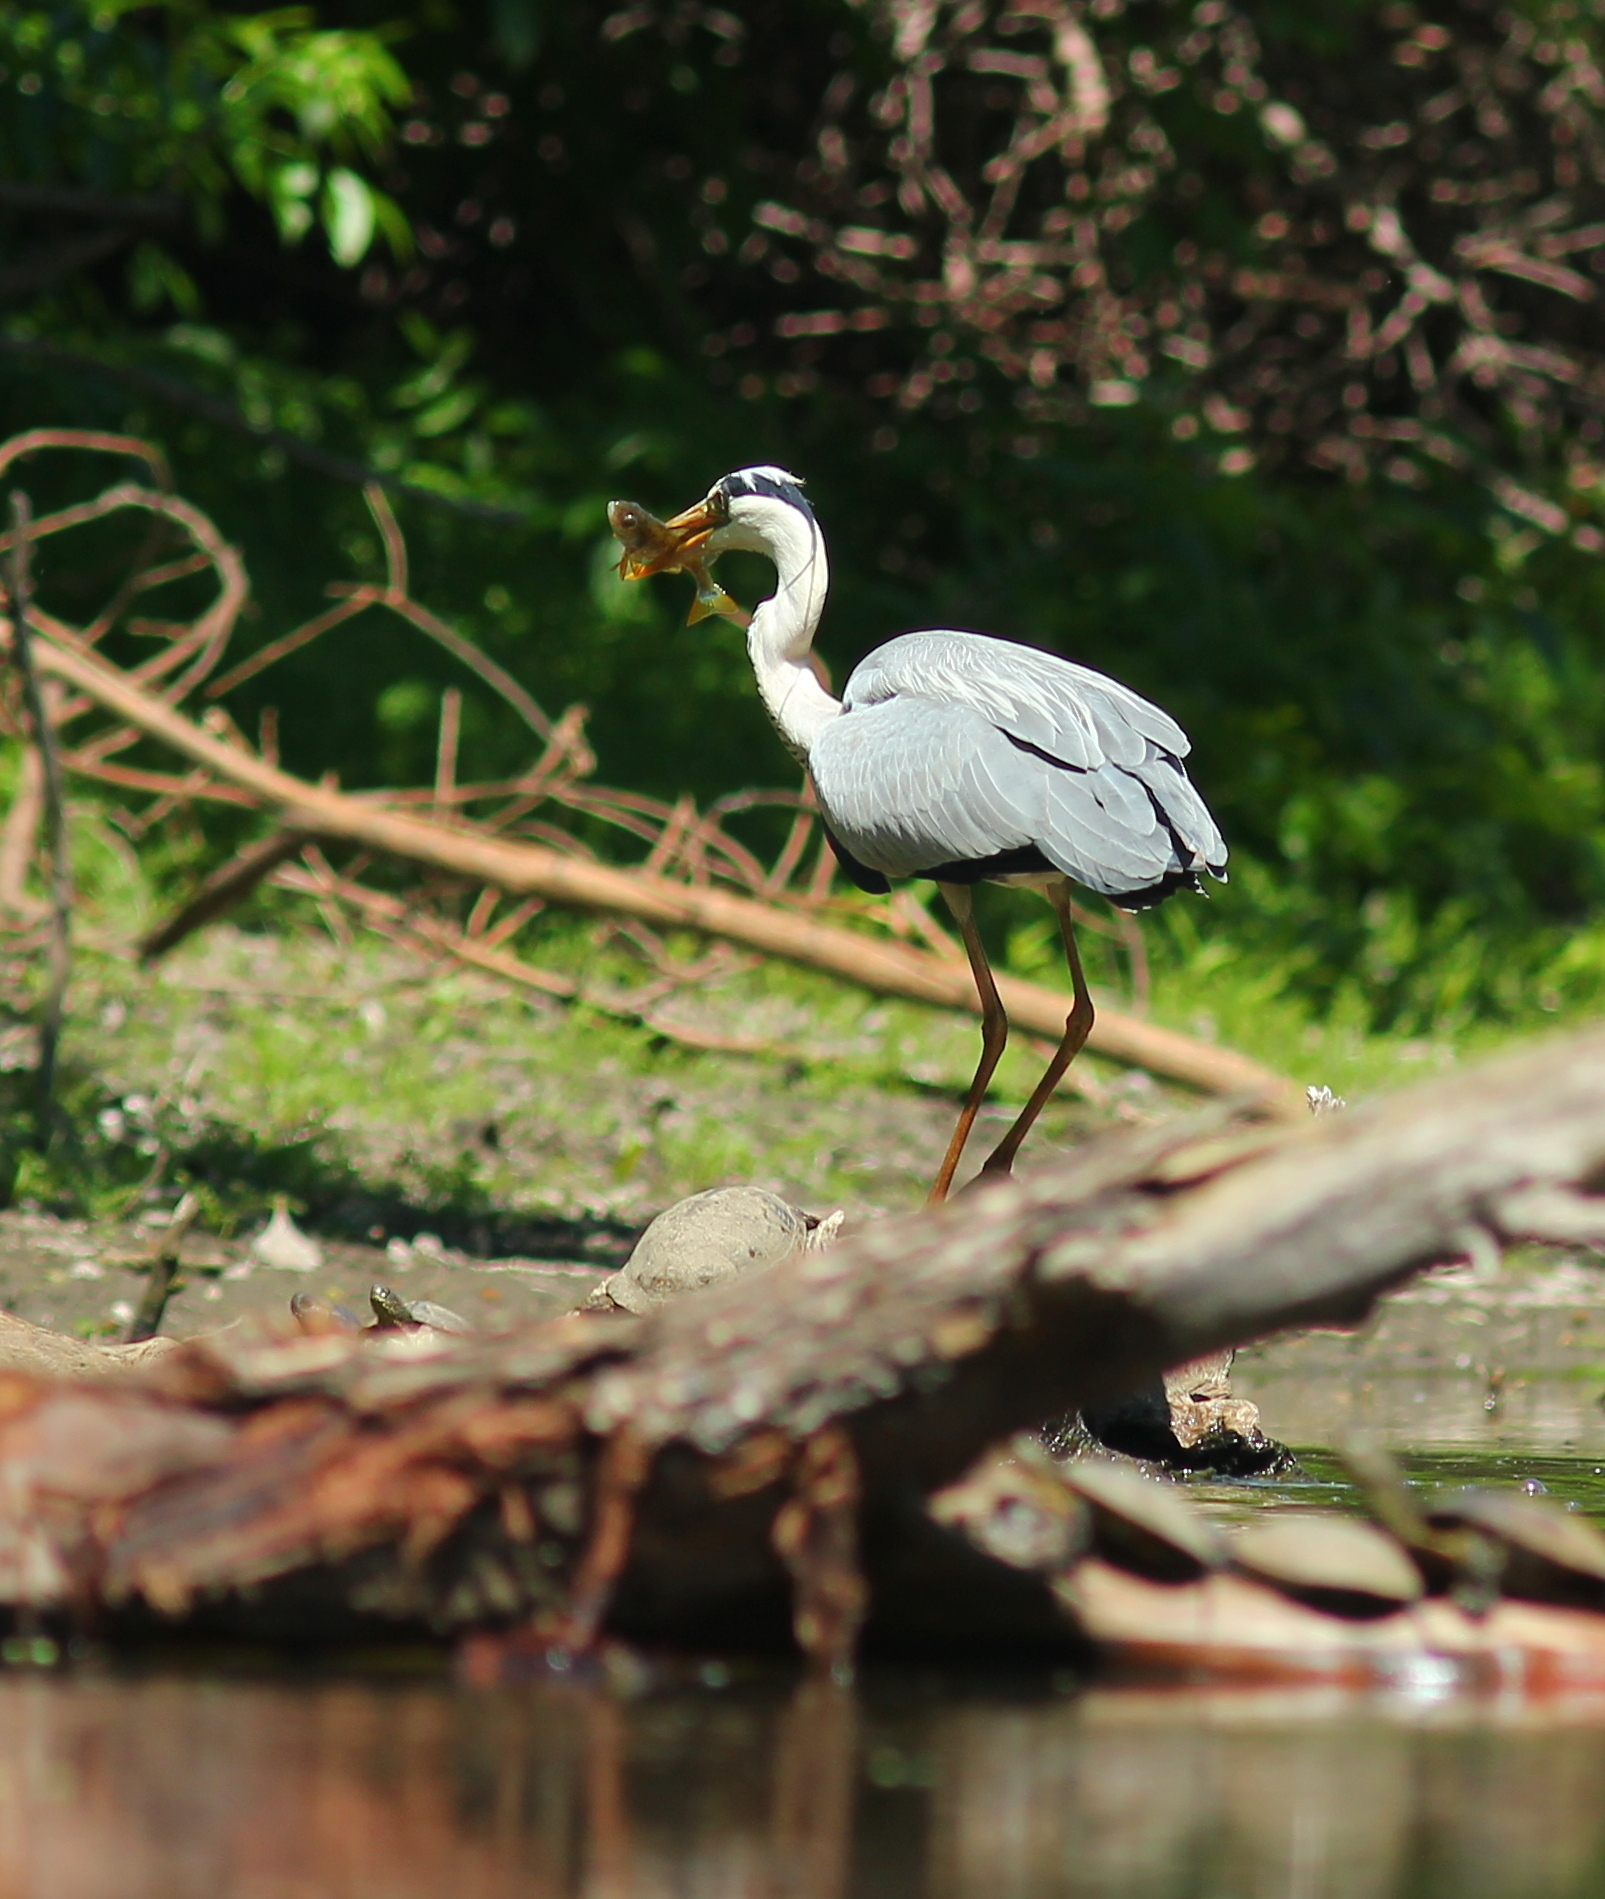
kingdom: Animalia
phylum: Chordata
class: Aves
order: Pelecaniformes
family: Ardeidae
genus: Ardea
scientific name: Ardea cinerea
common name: Grey heron
